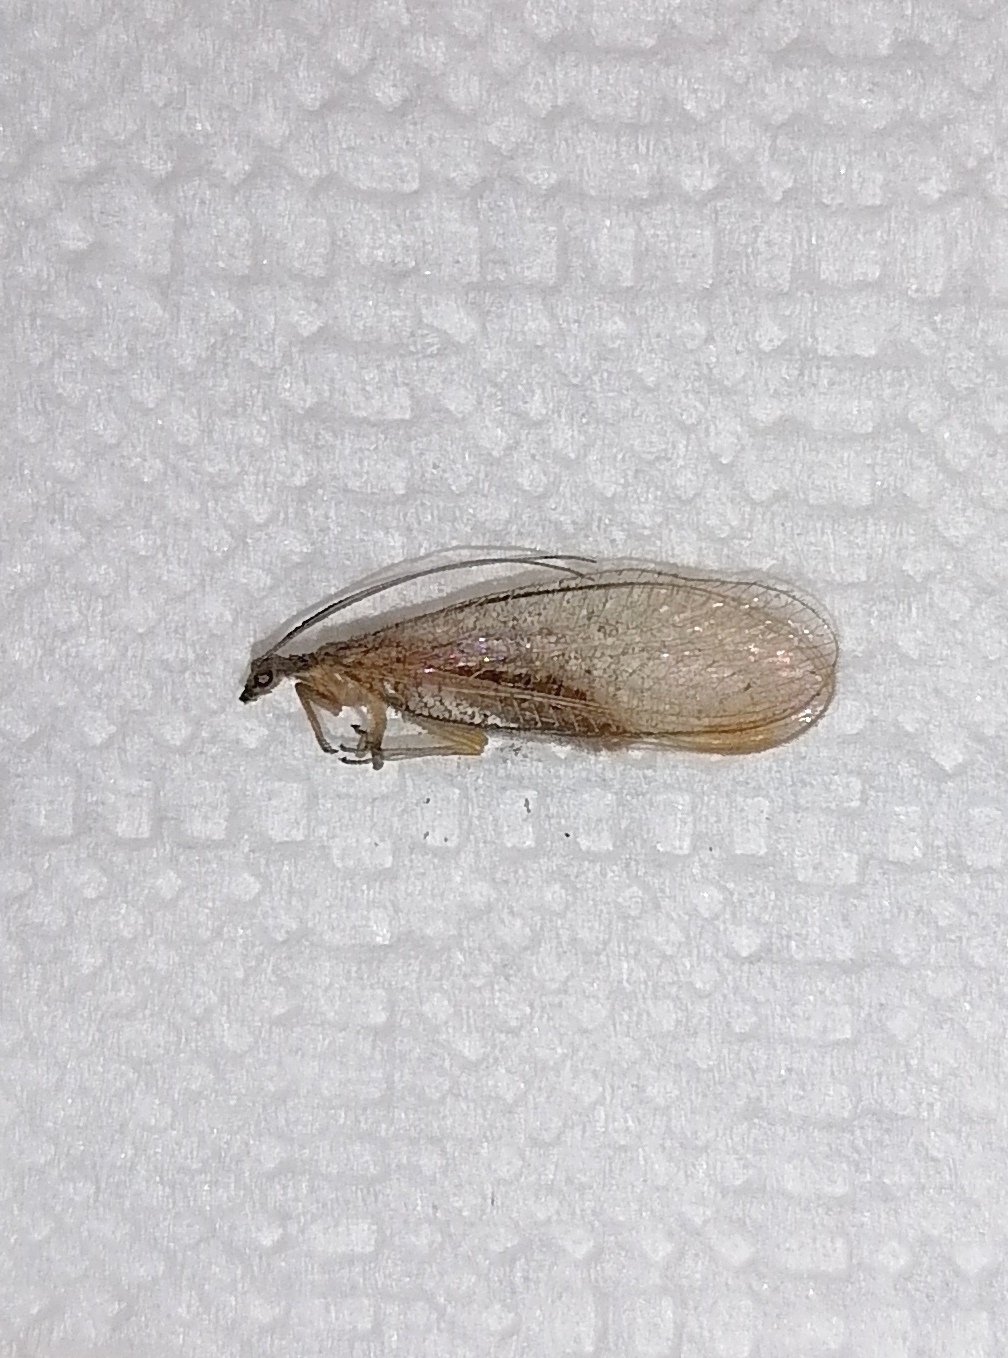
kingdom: Animalia
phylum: Arthropoda
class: Insecta
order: Neuroptera
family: Chrysopidae
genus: Chrysoperla
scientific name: Chrysoperla
